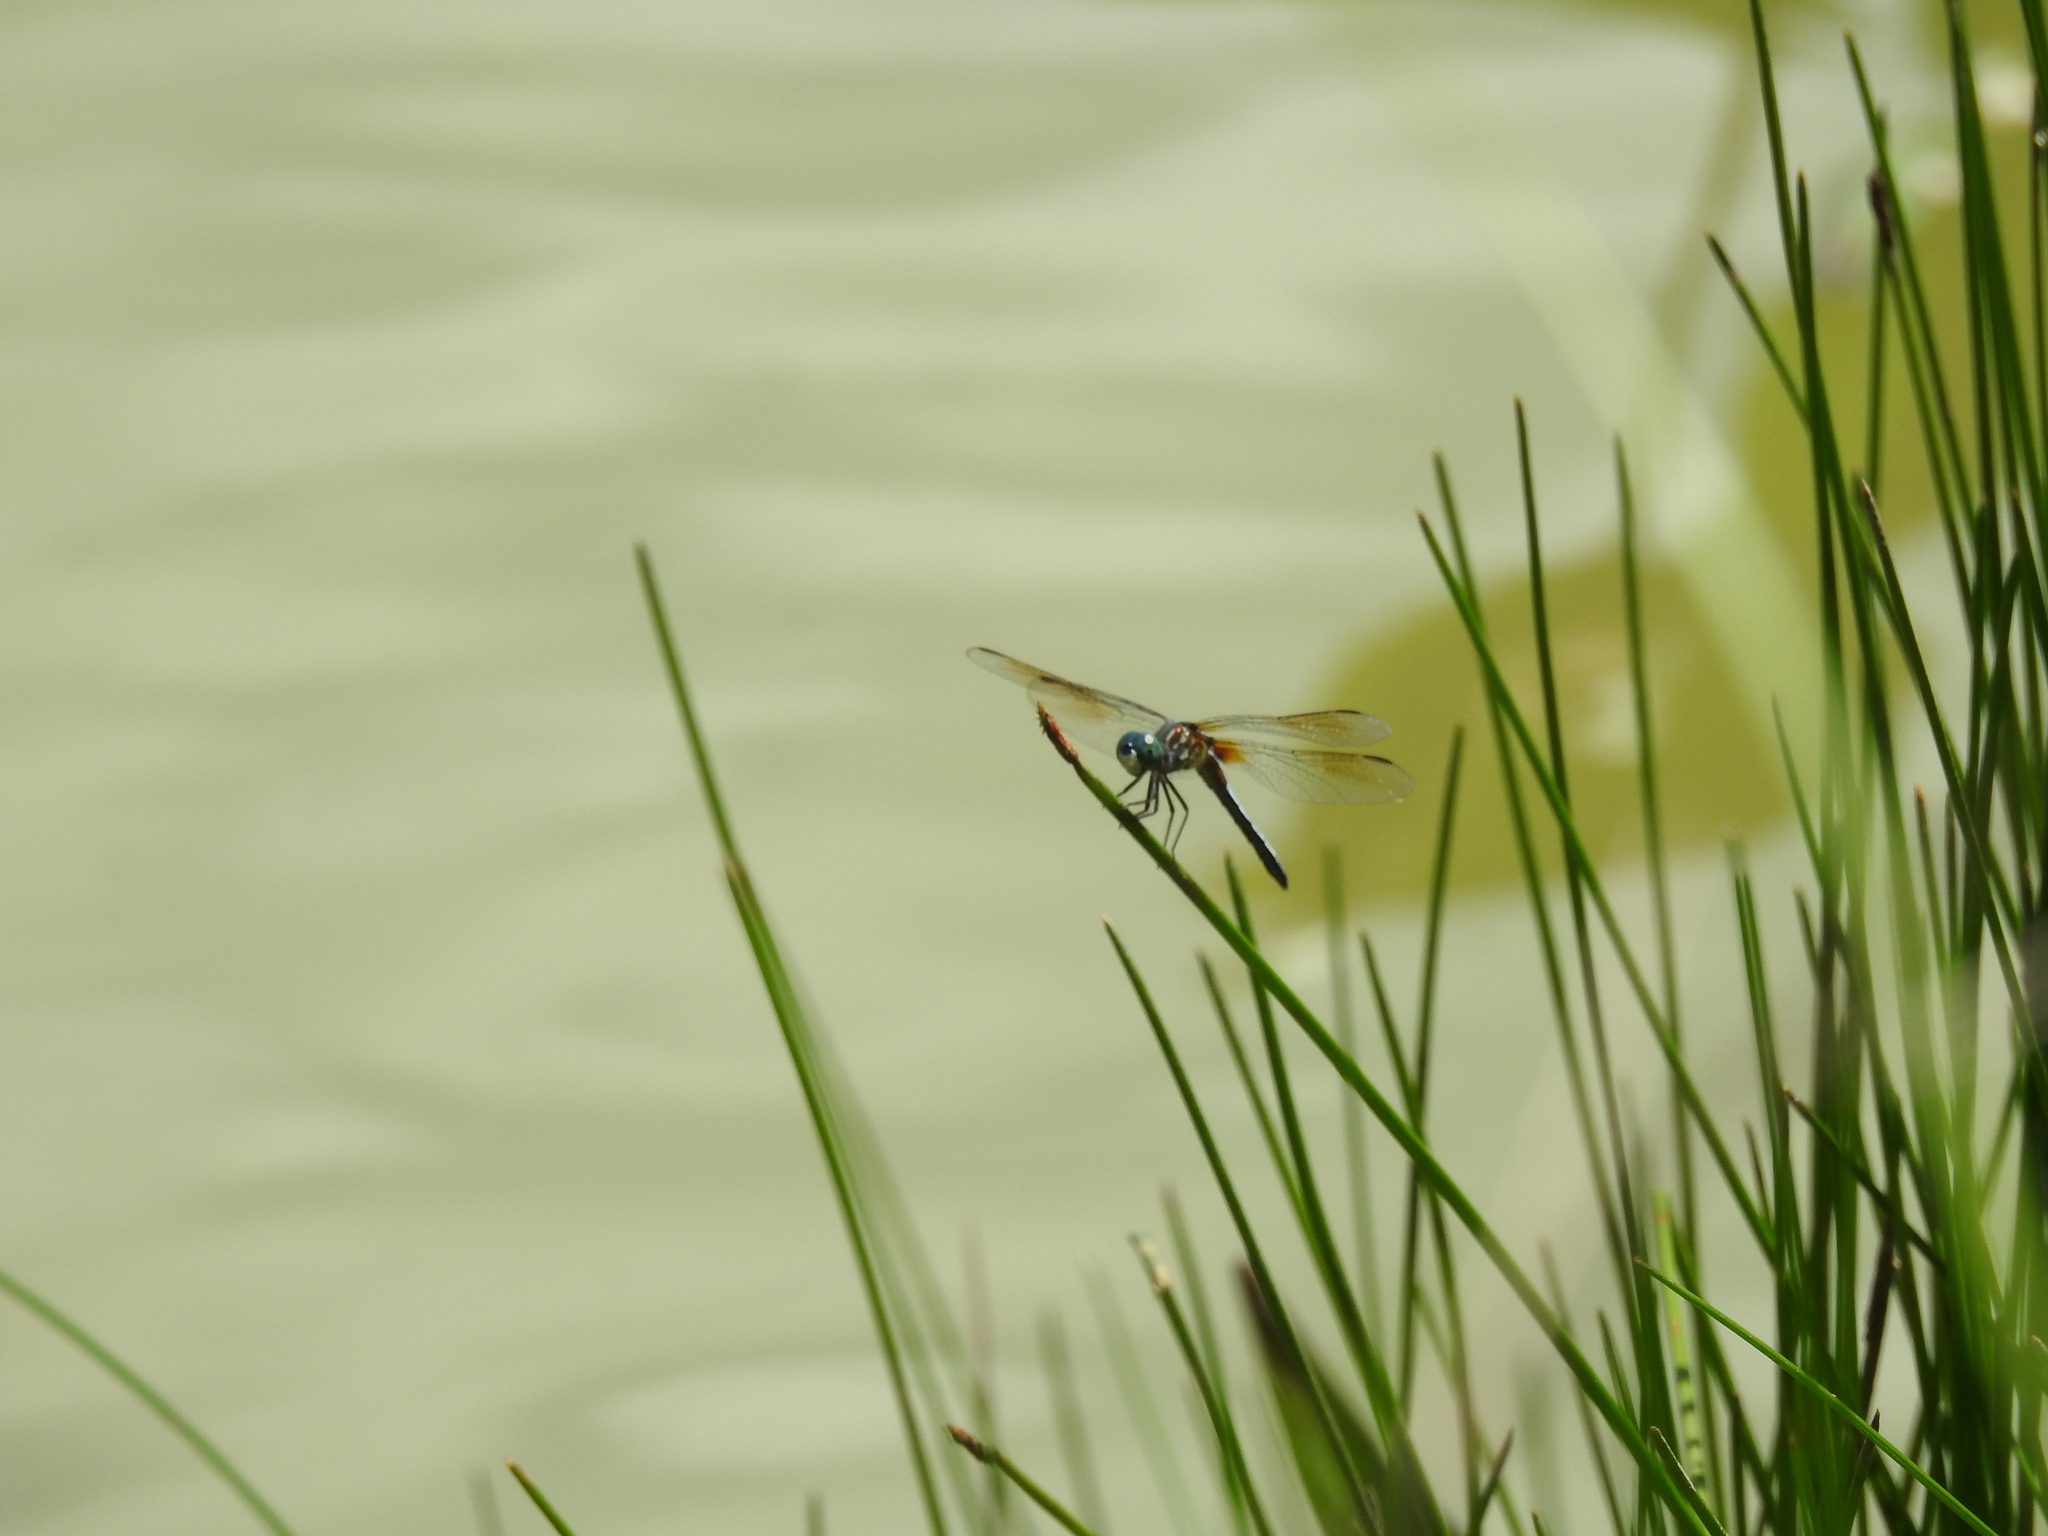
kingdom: Animalia
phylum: Arthropoda
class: Insecta
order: Odonata
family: Libellulidae
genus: Pachydiplax
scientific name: Pachydiplax longipennis
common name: Blue dasher
